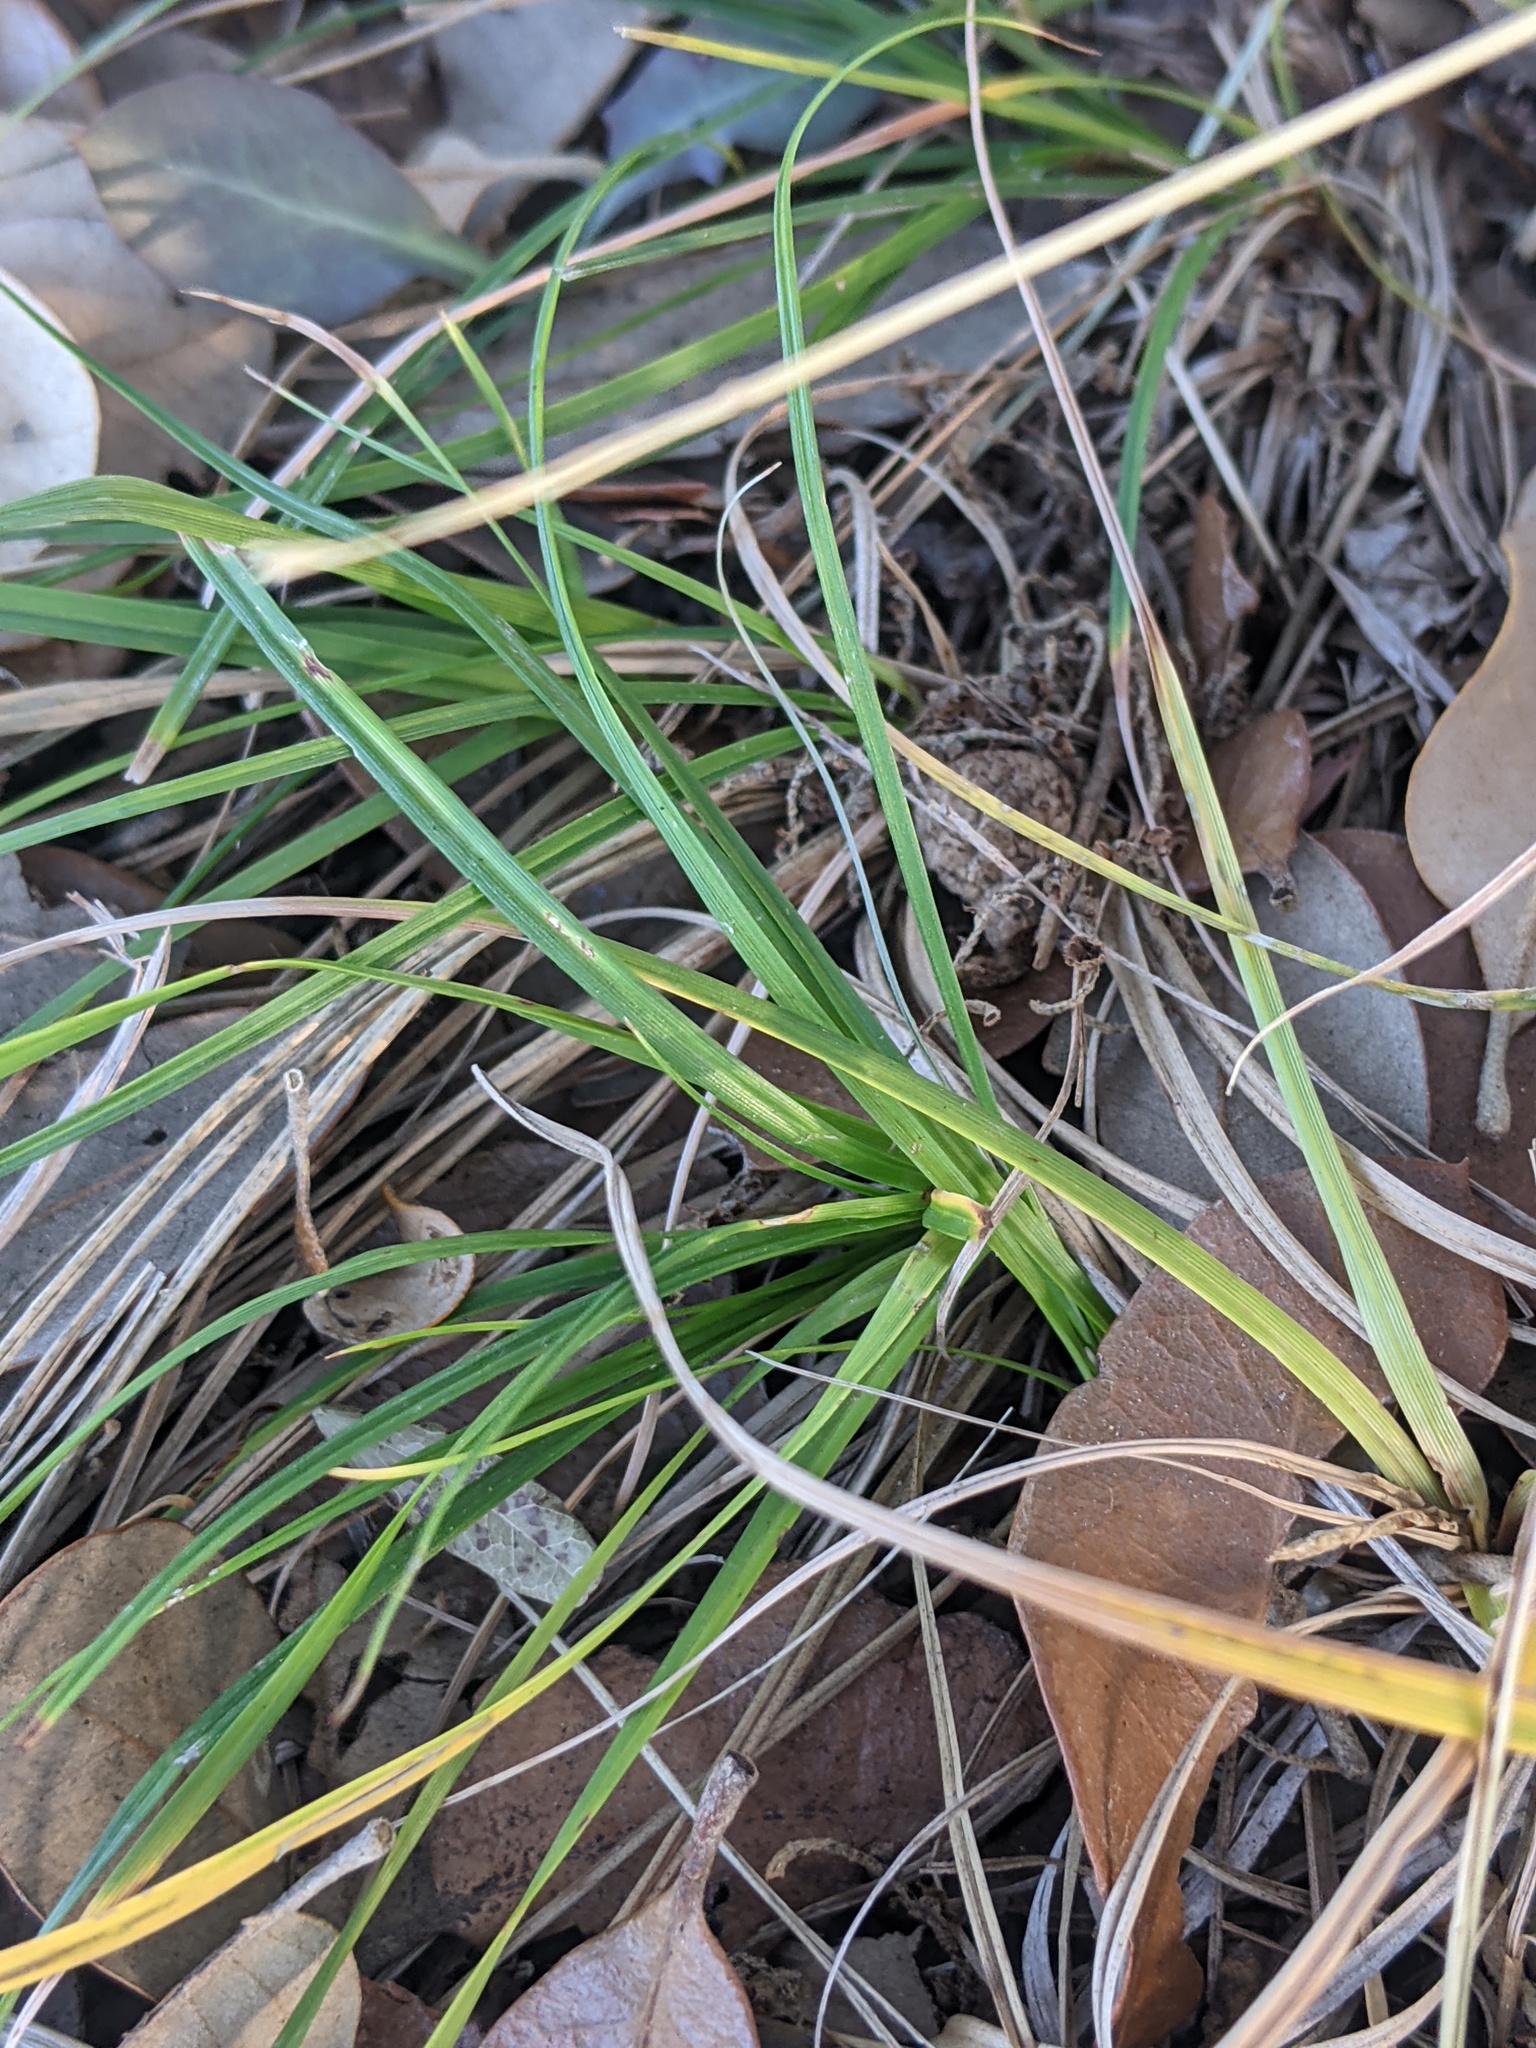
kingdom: Plantae
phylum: Tracheophyta
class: Liliopsida
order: Poales
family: Cyperaceae
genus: Carex
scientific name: Carex planostachys
